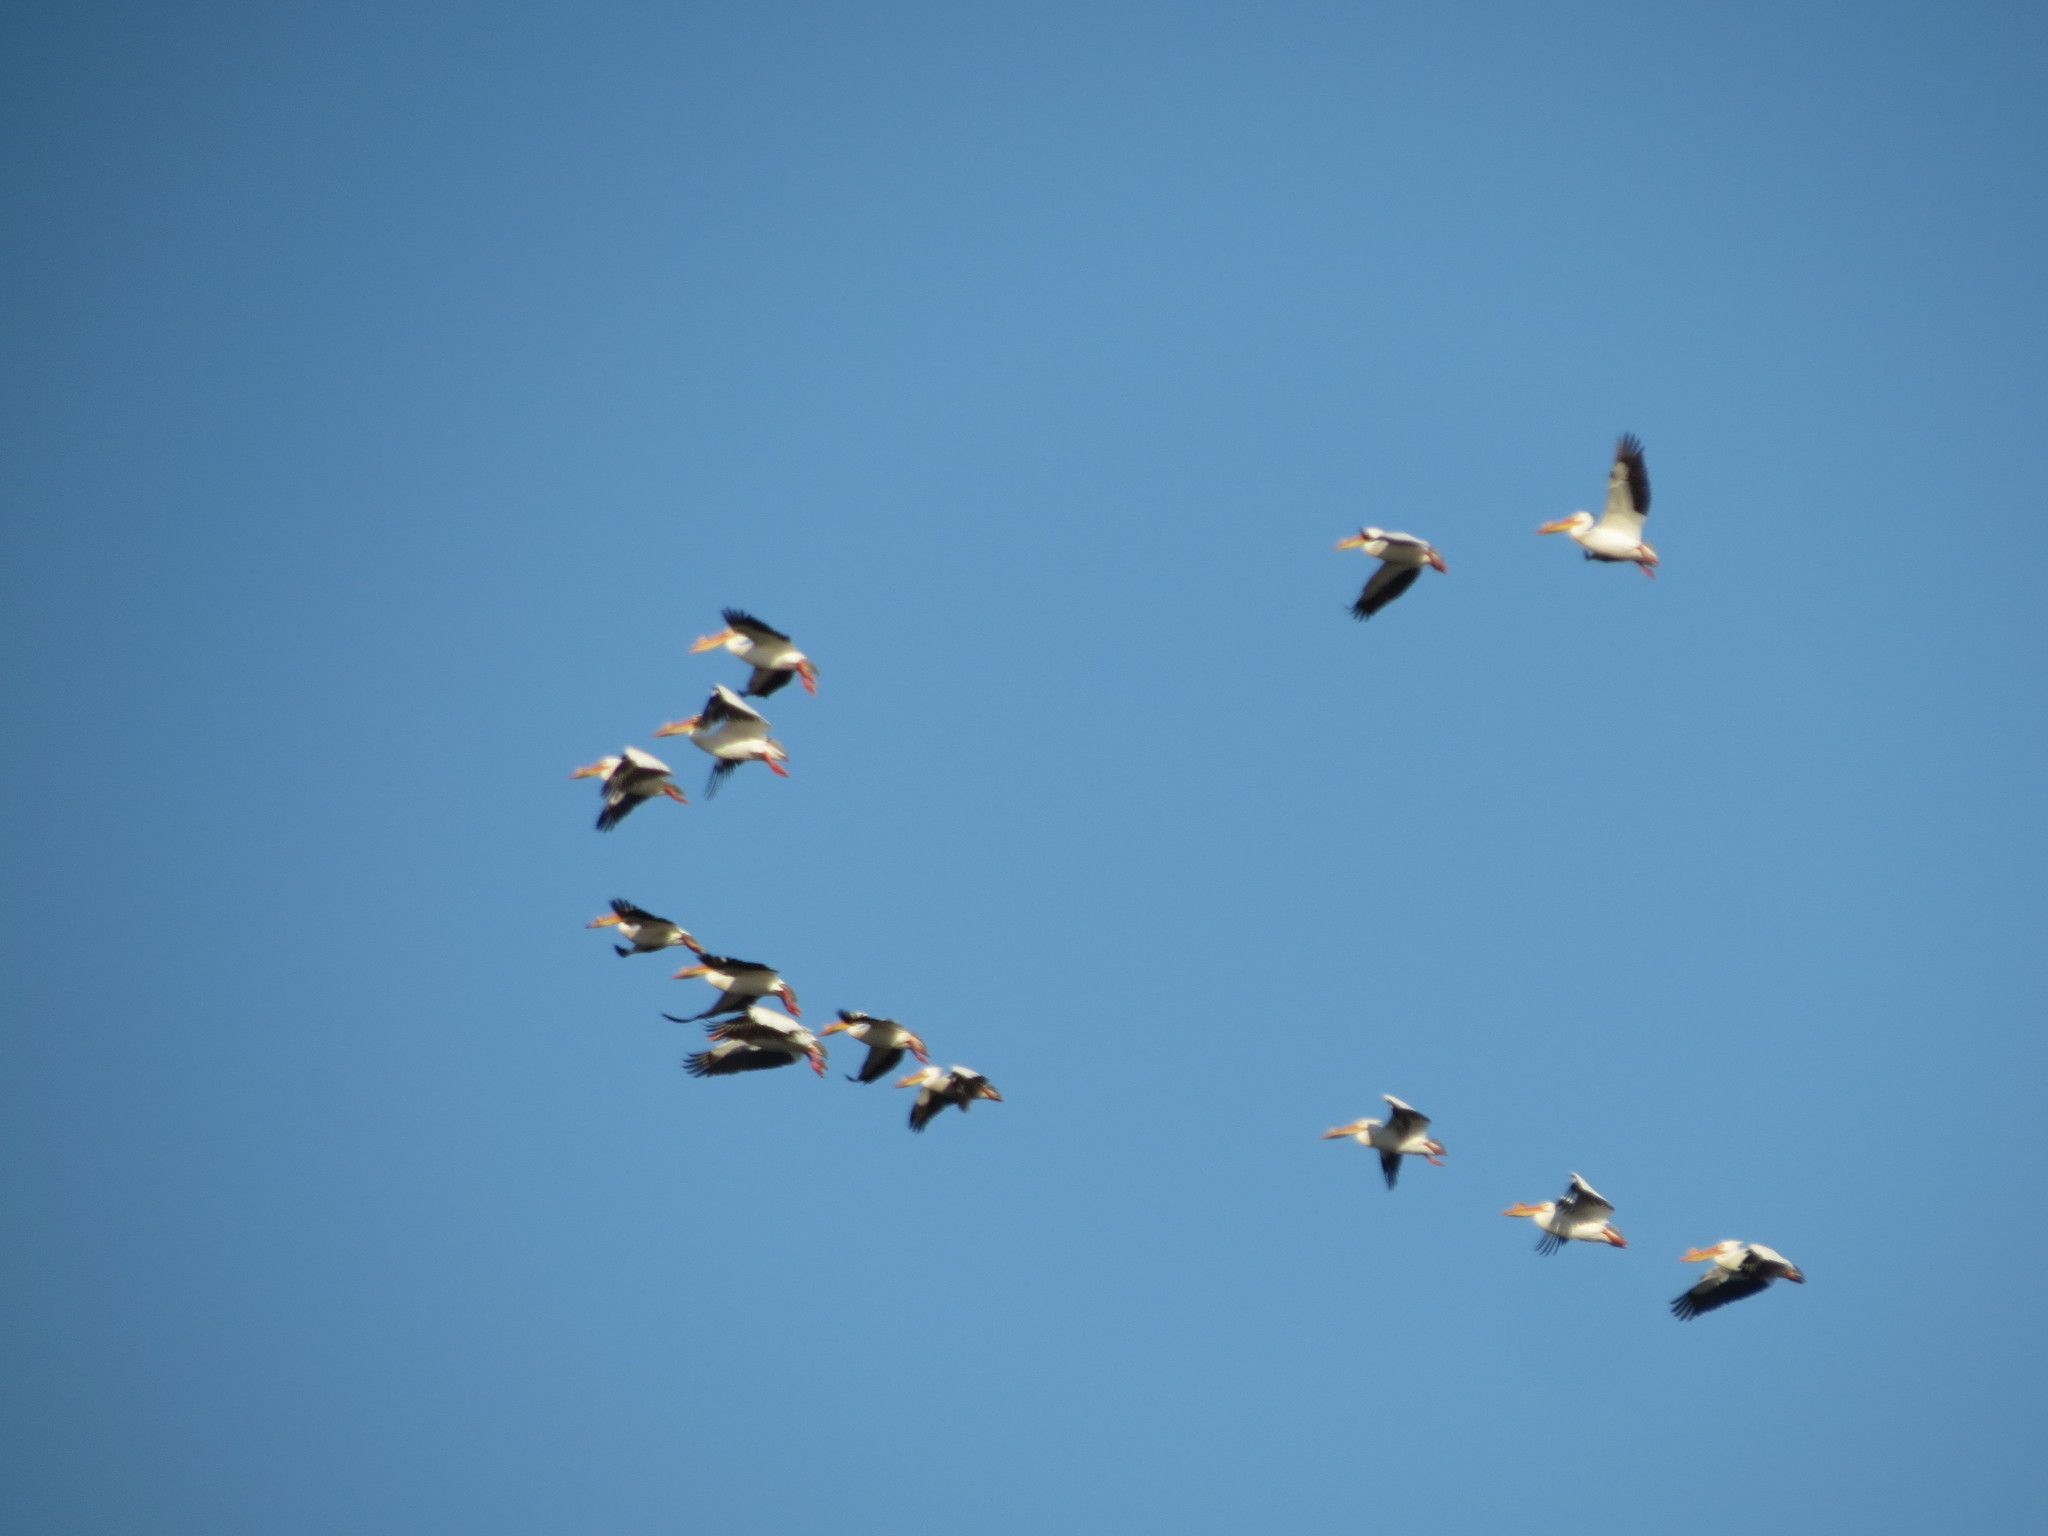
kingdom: Animalia
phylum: Chordata
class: Aves
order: Pelecaniformes
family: Pelecanidae
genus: Pelecanus
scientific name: Pelecanus erythrorhynchos
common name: American white pelican
